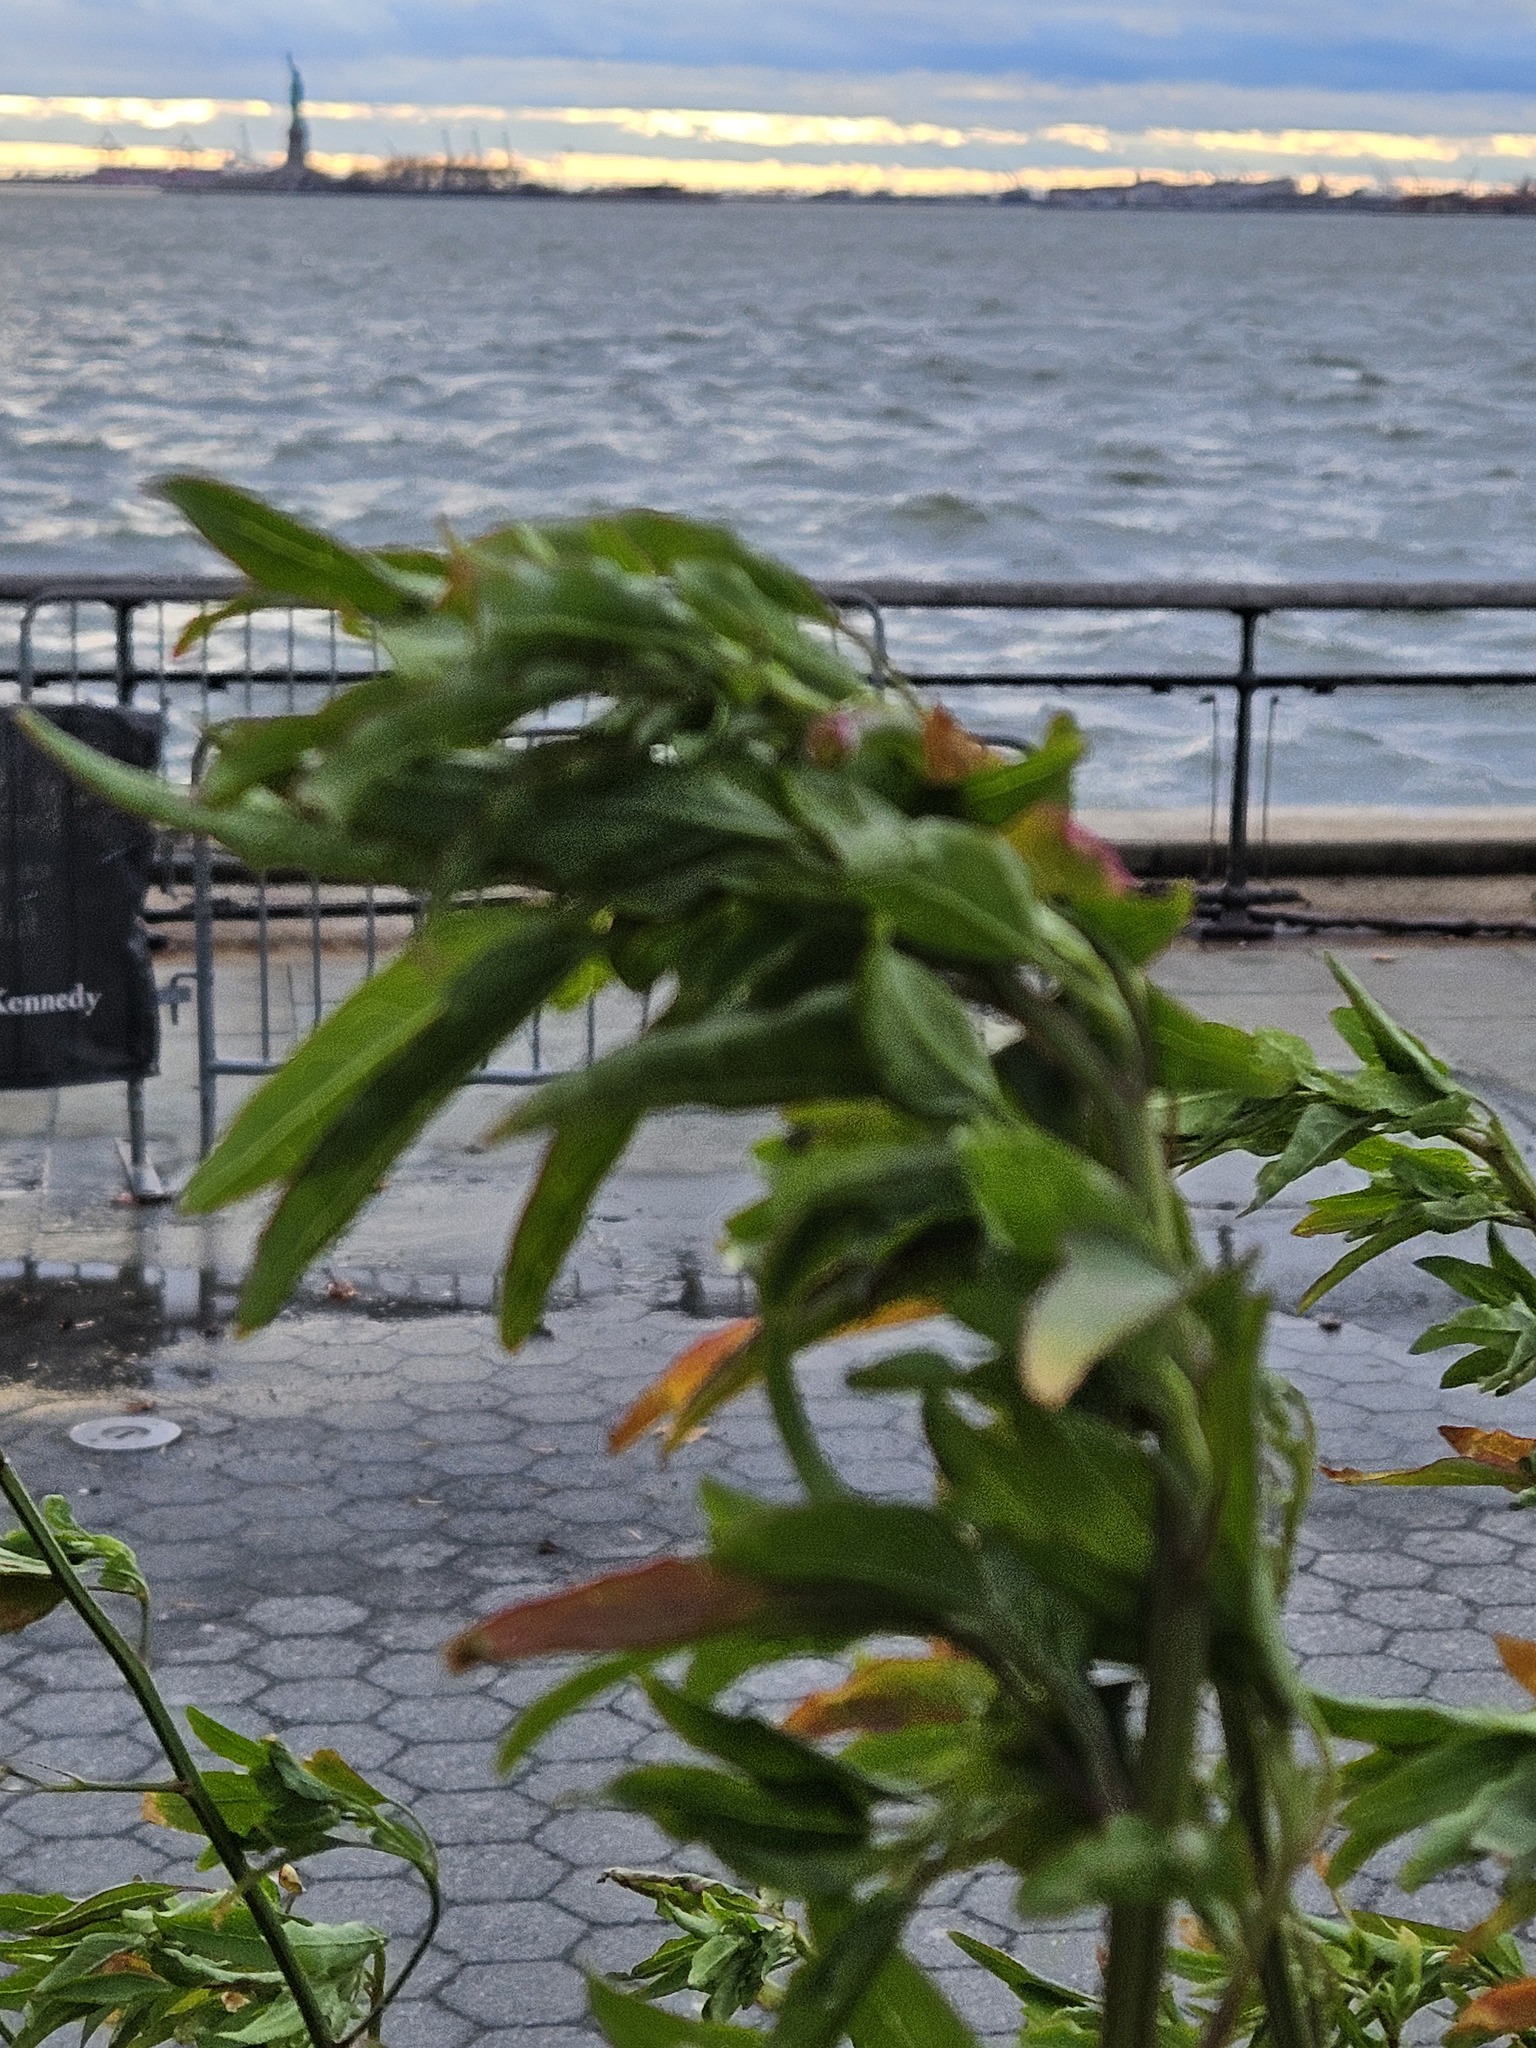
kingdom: Plantae
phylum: Tracheophyta
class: Magnoliopsida
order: Caryophyllales
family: Amaranthaceae
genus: Chenopodium
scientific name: Chenopodium album
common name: Fat-hen
